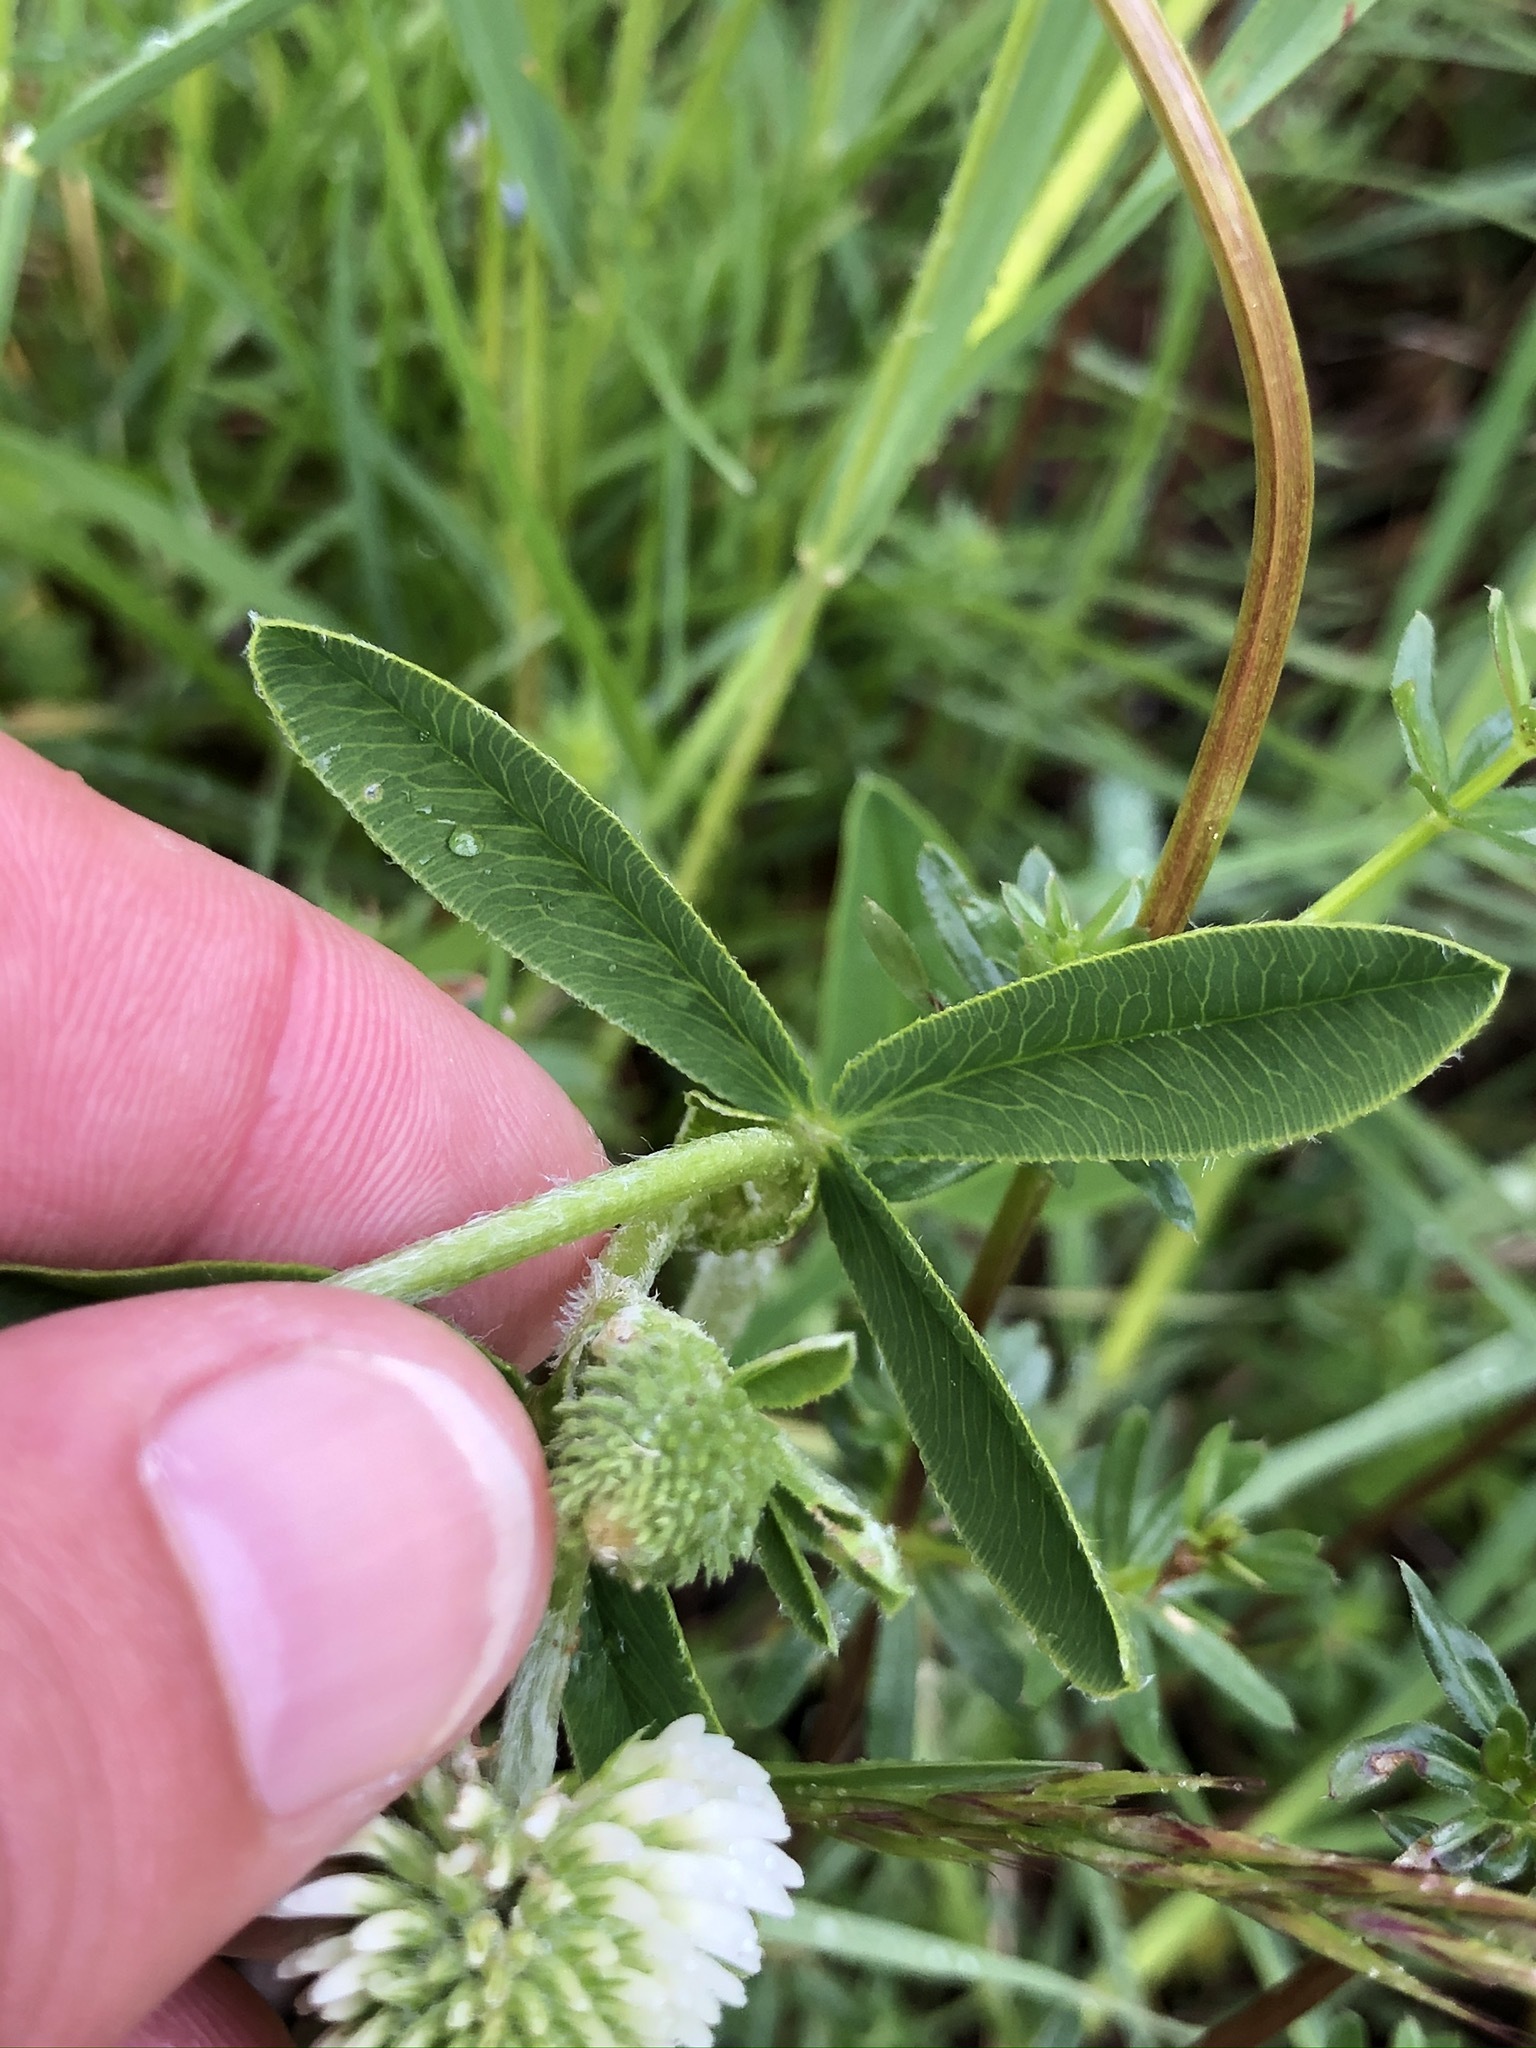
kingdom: Plantae
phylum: Tracheophyta
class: Magnoliopsida
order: Fabales
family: Fabaceae
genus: Trifolium
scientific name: Trifolium montanum
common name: Mountain clover
